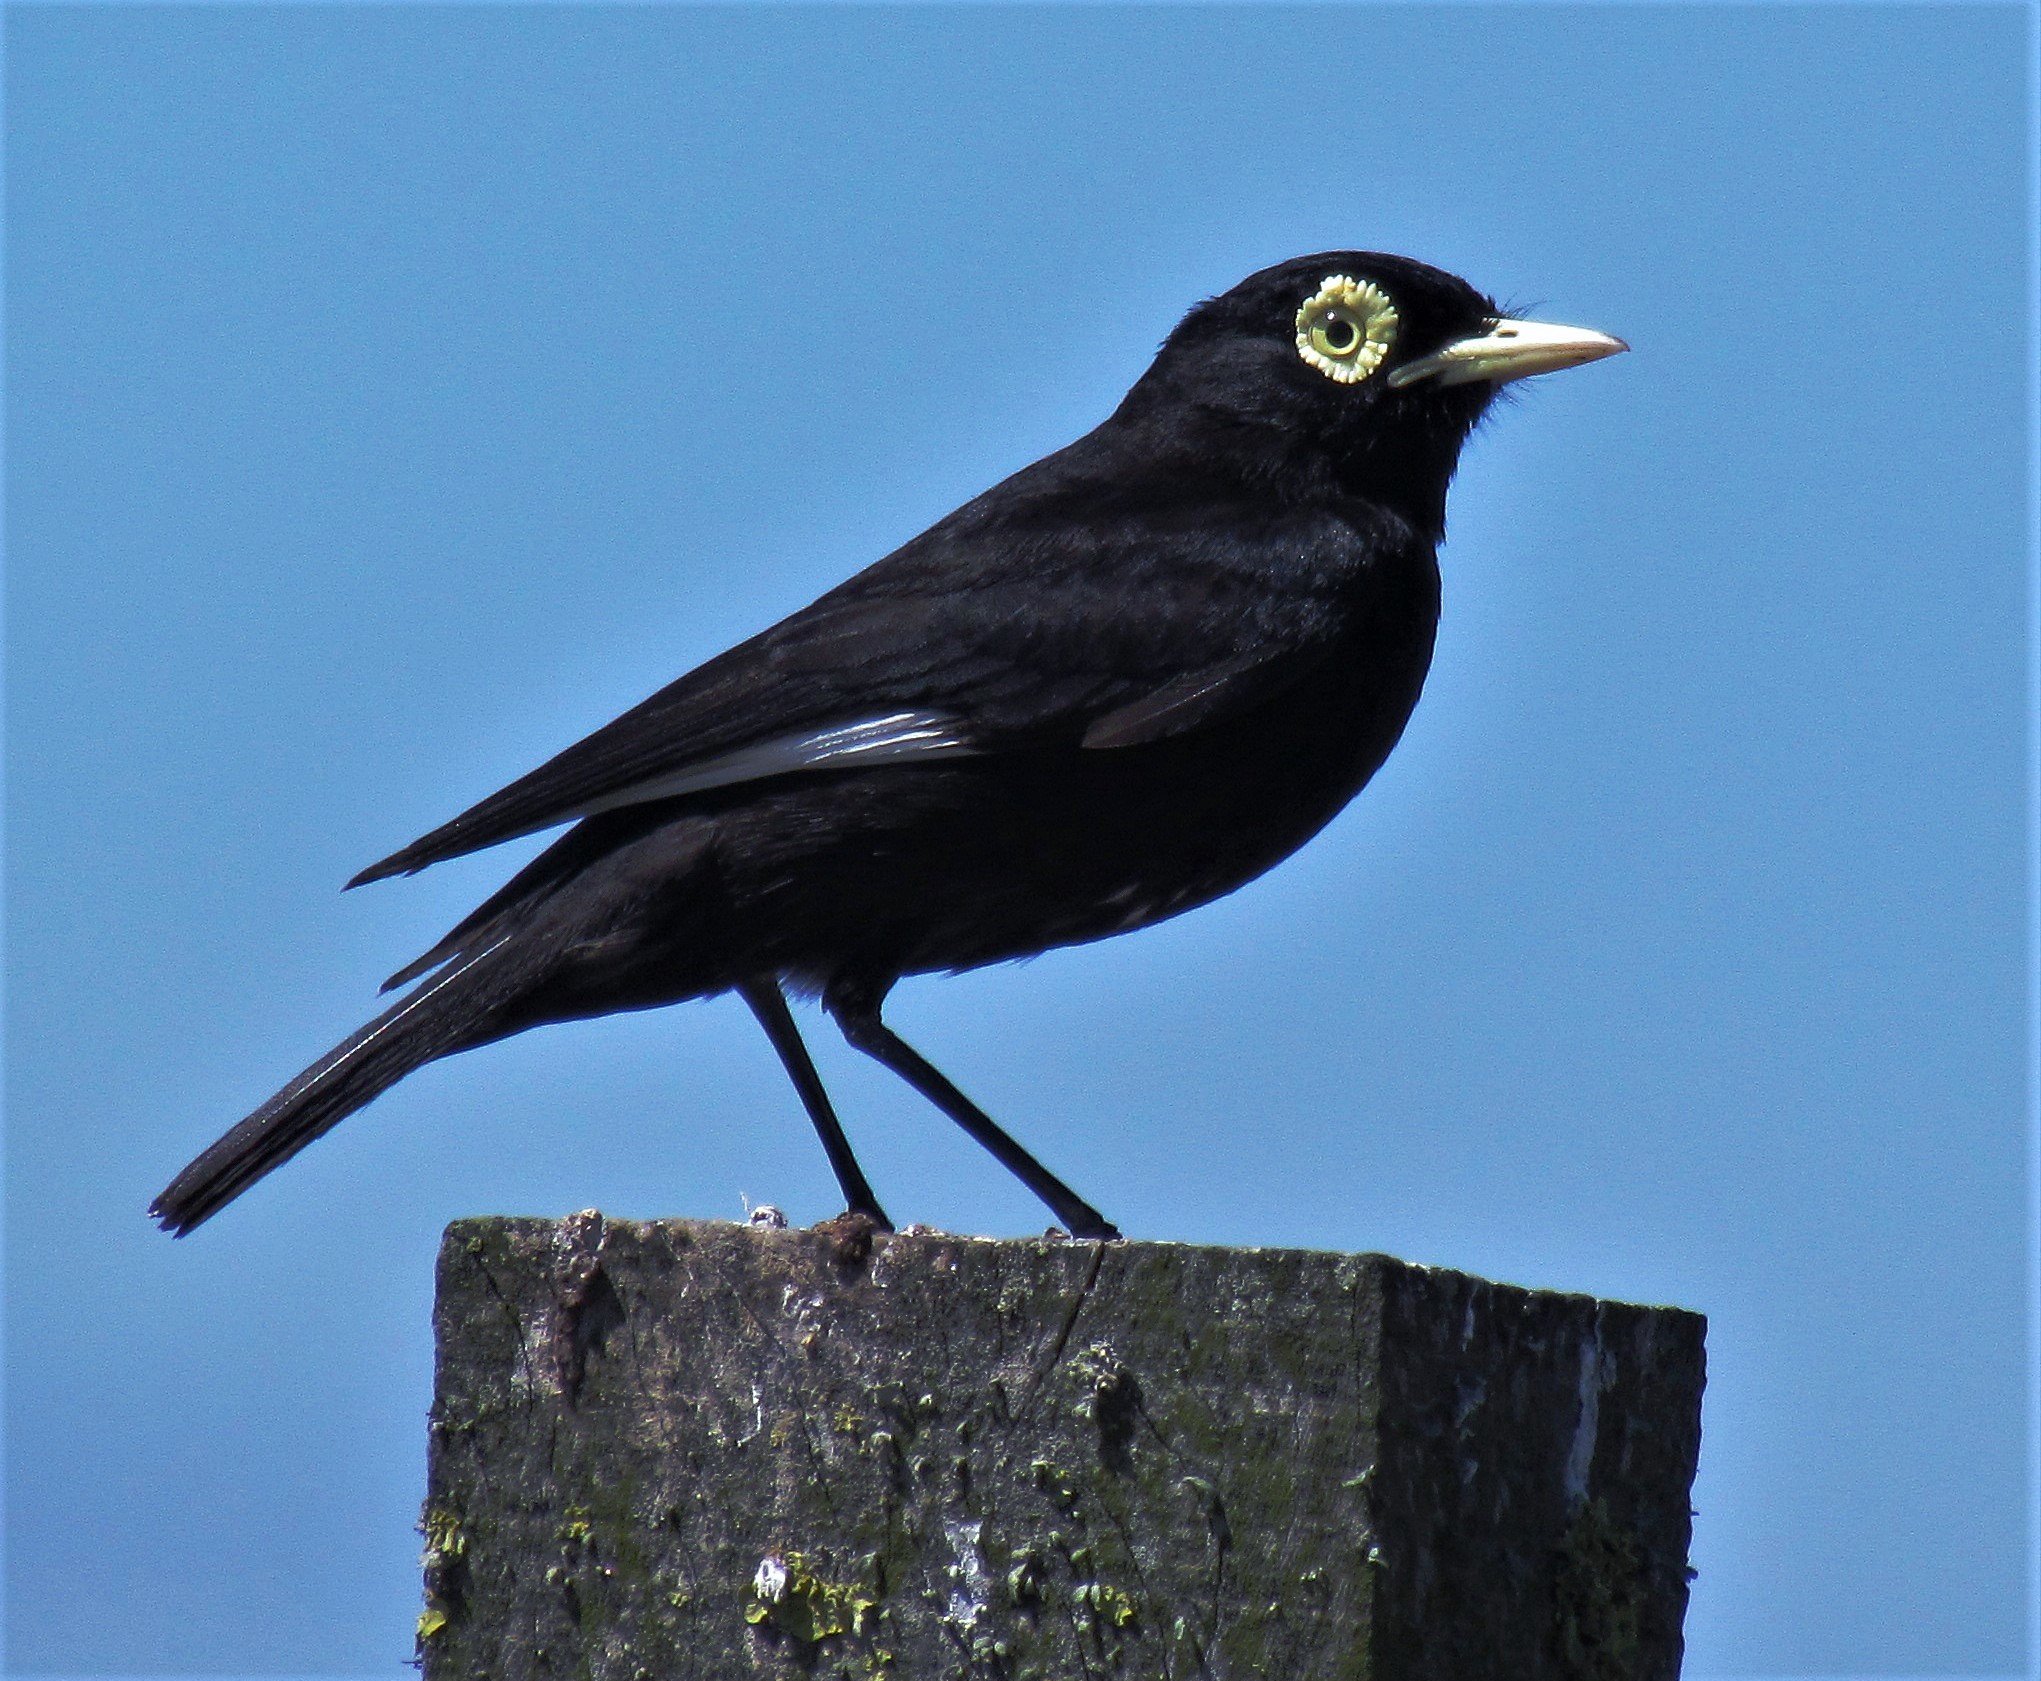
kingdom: Animalia
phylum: Chordata
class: Aves
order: Passeriformes
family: Tyrannidae
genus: Hymenops
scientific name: Hymenops perspicillatus
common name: Spectacled tyrant
